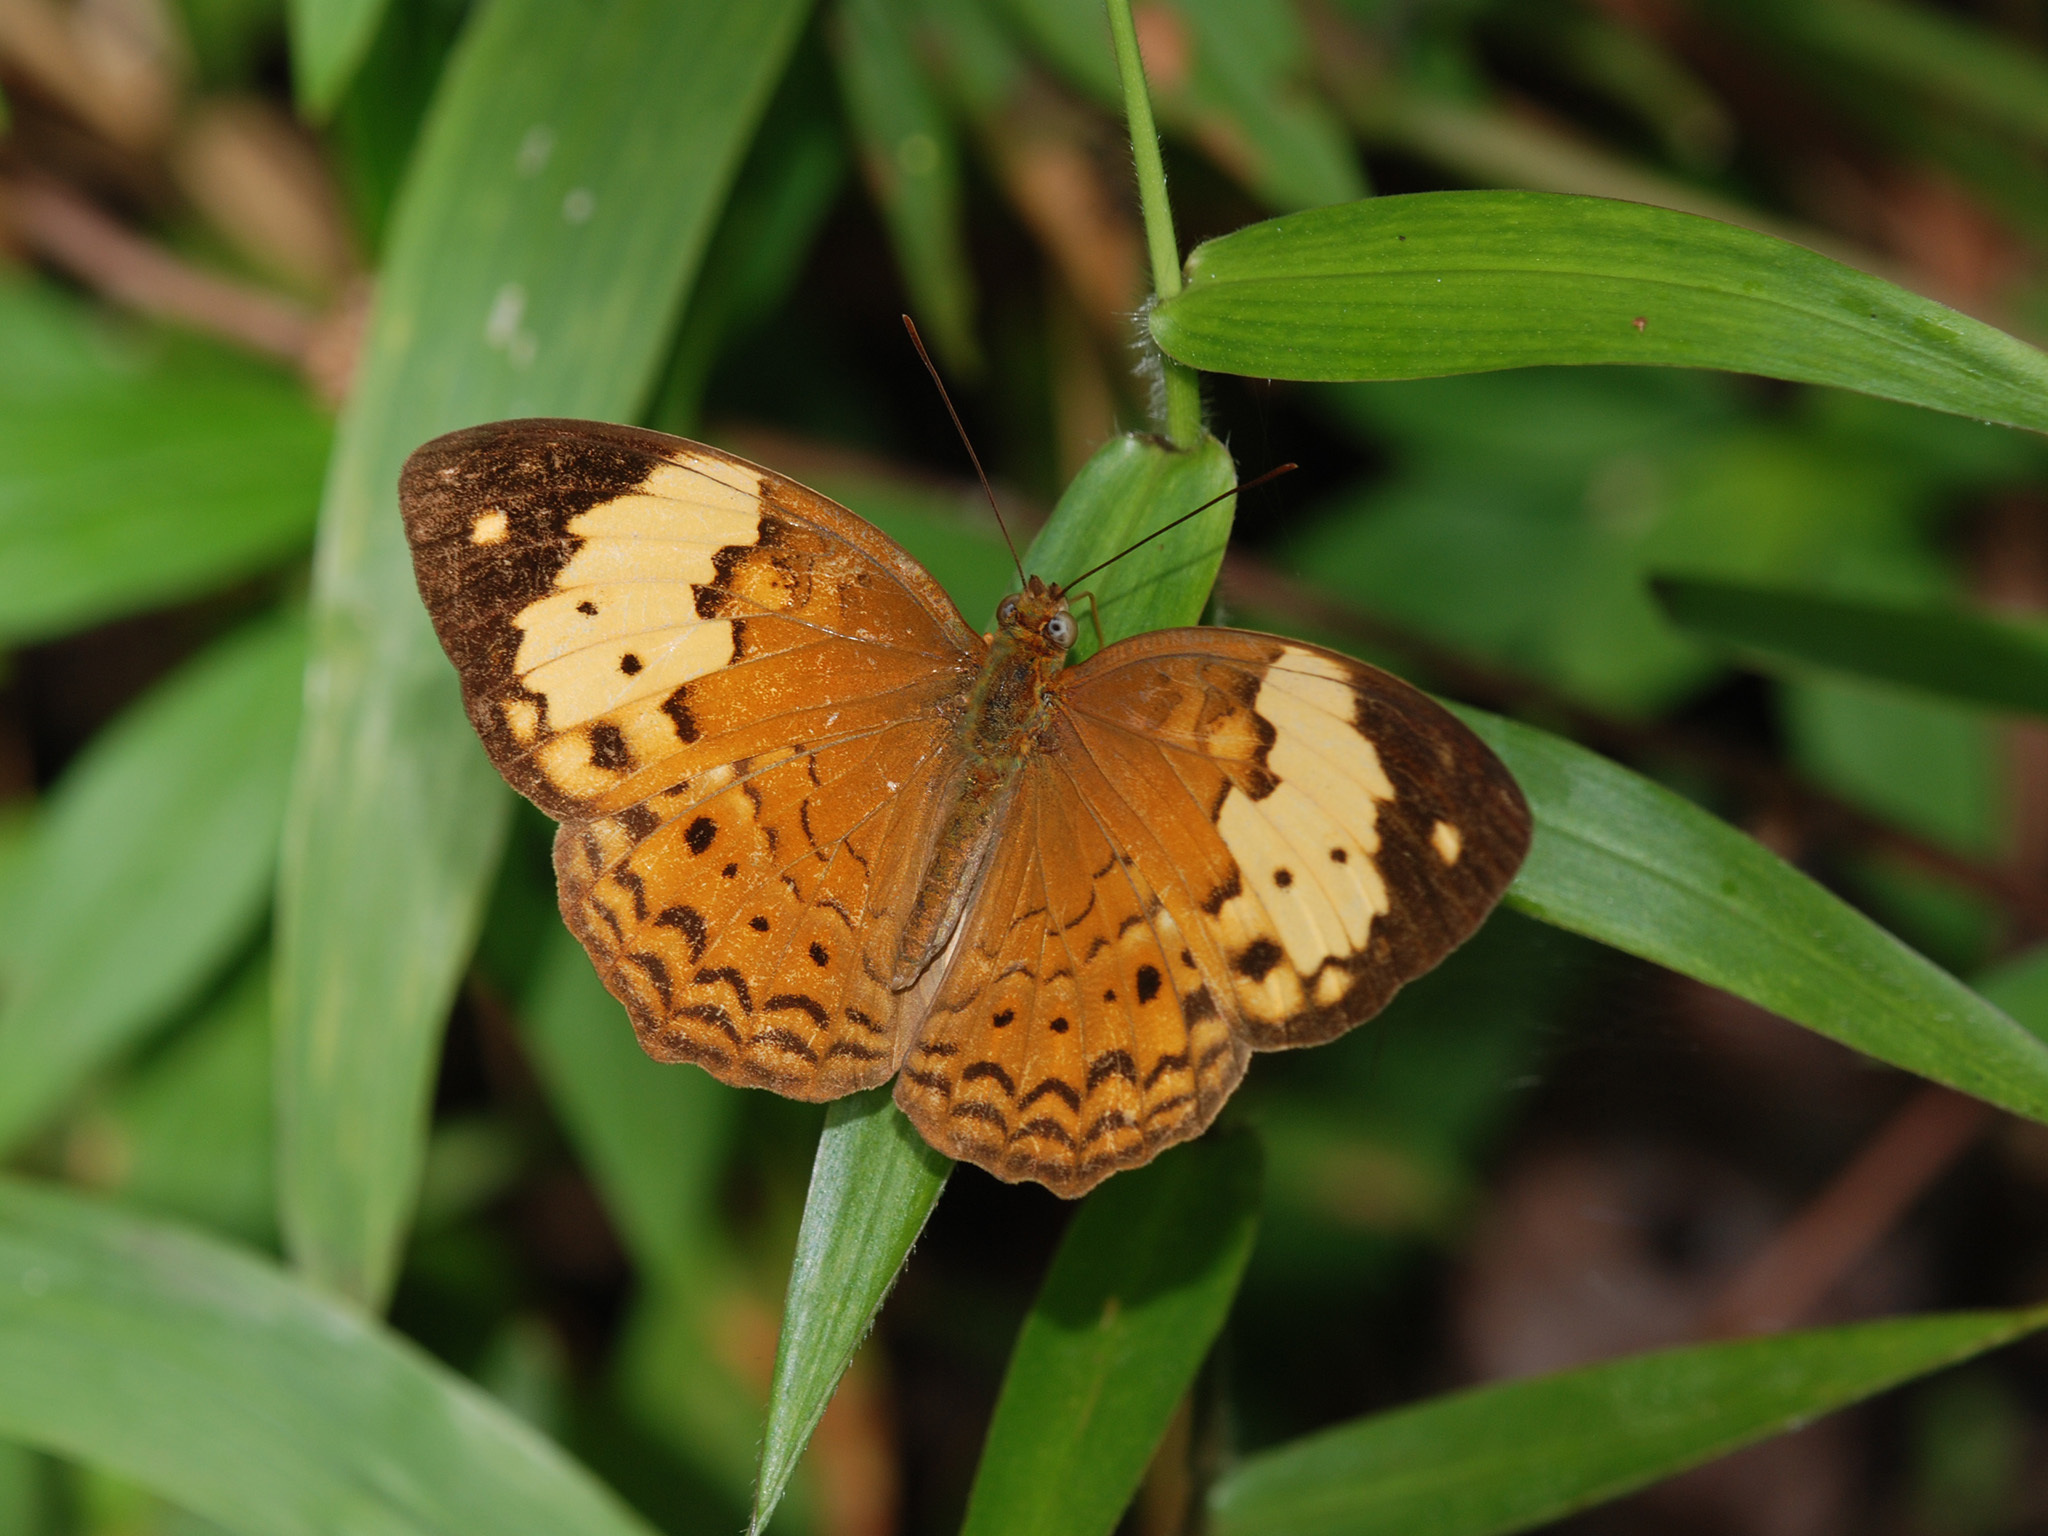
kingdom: Animalia
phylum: Arthropoda
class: Insecta
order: Lepidoptera
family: Nymphalidae
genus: Cupha
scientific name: Cupha erymanthis
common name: Rustic
